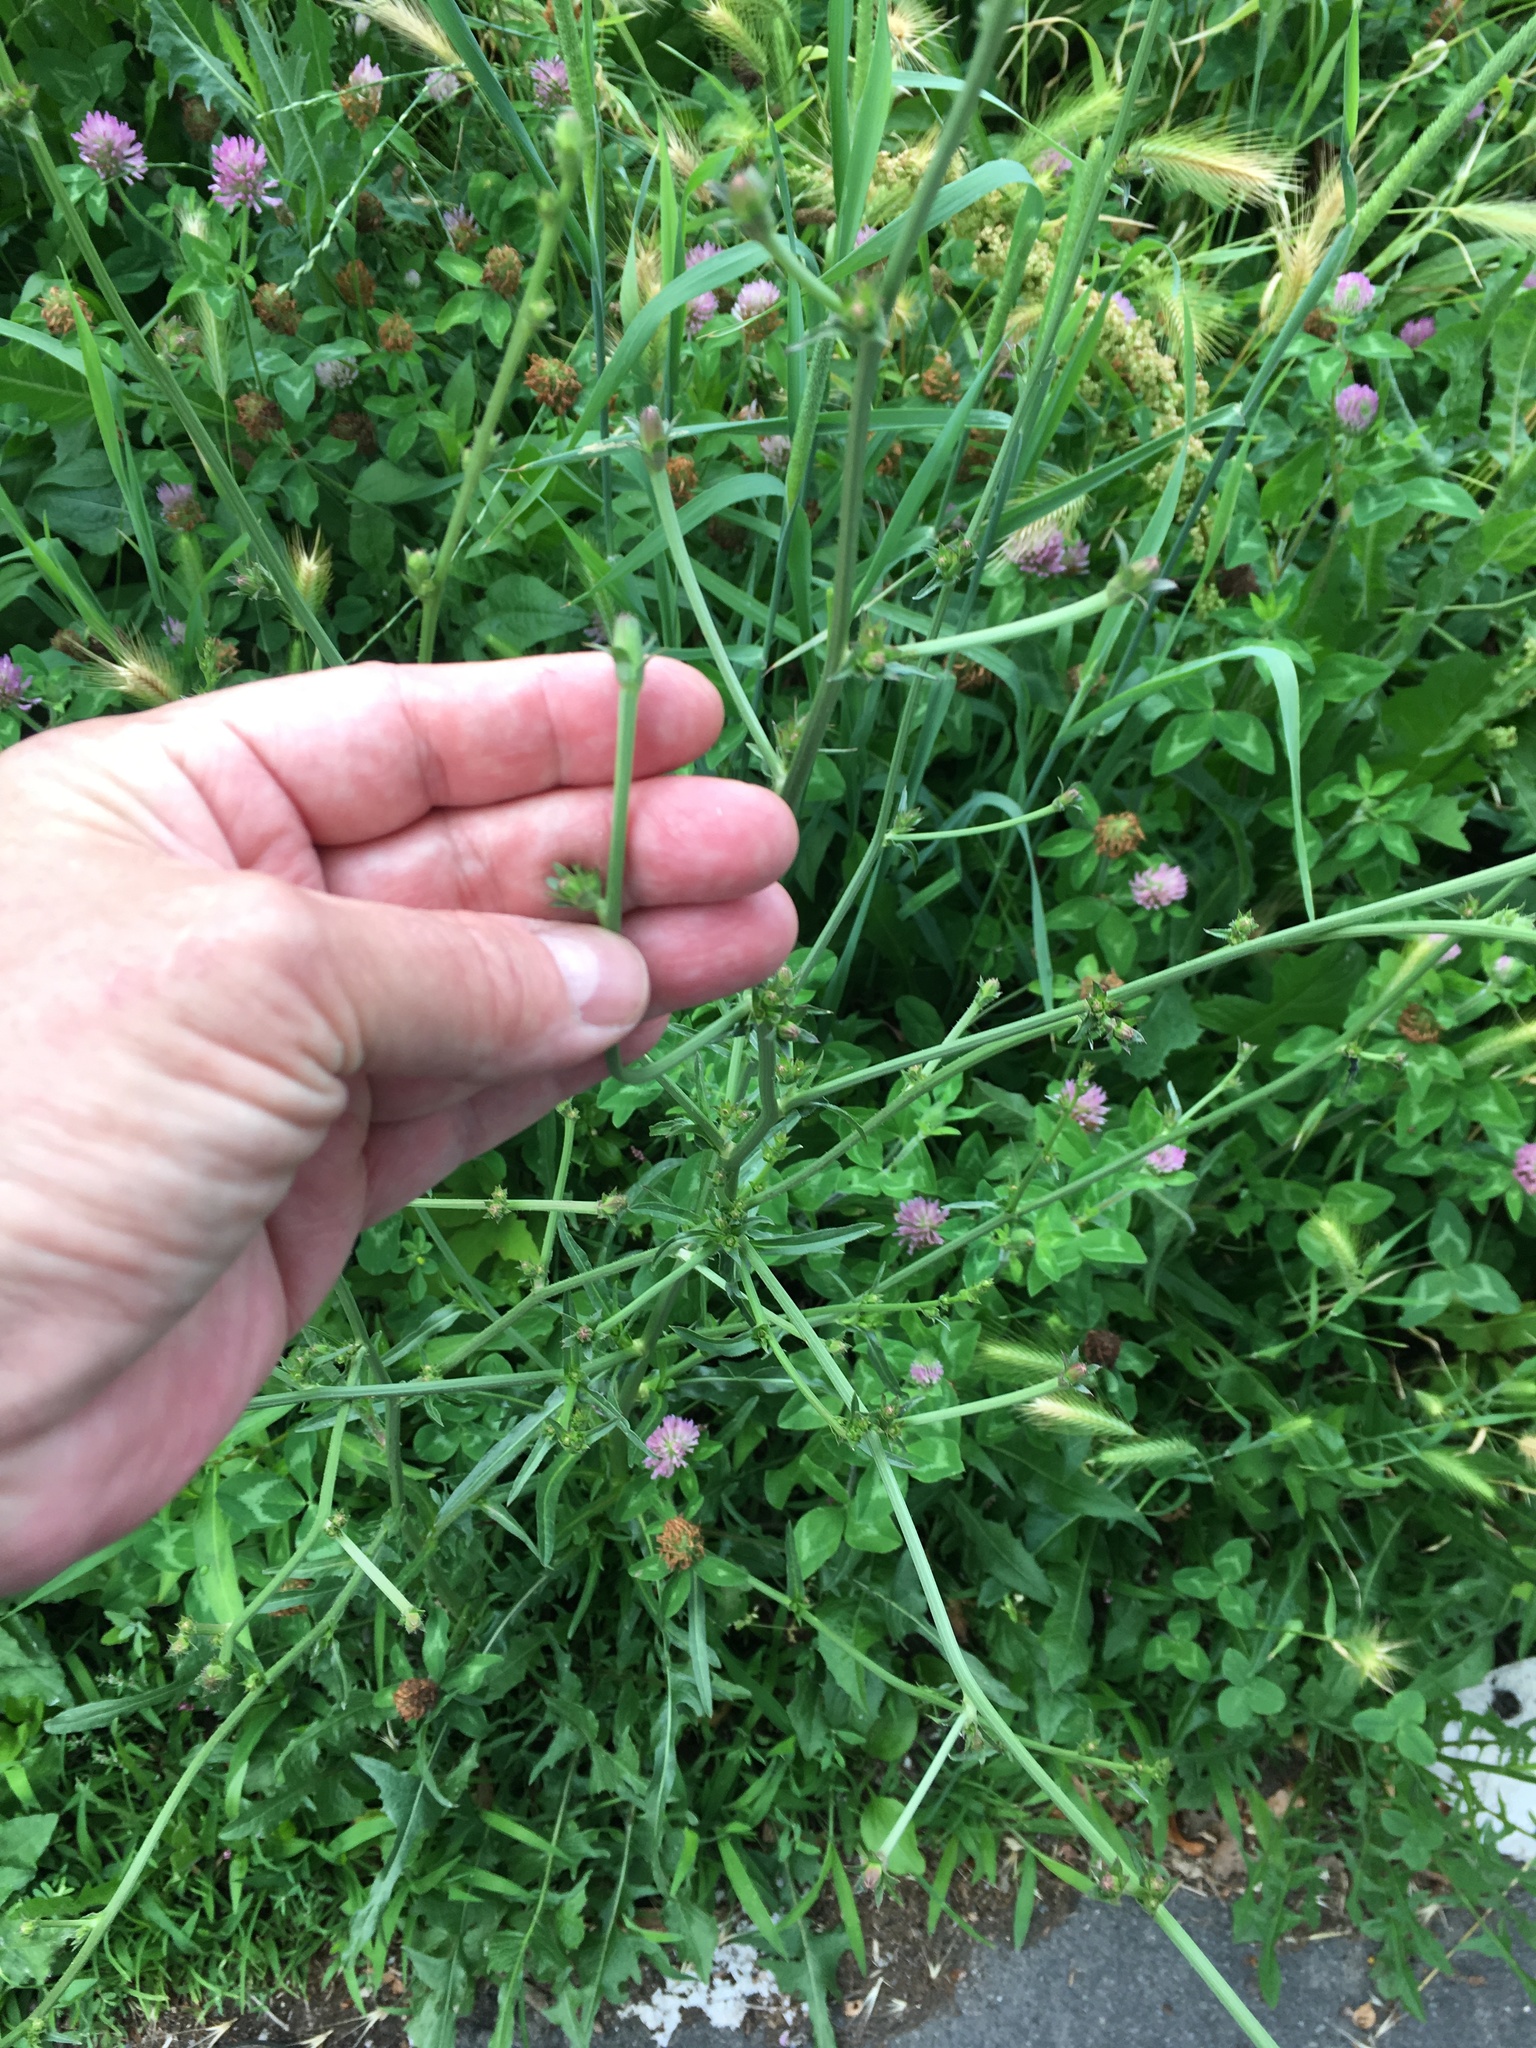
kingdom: Plantae
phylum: Tracheophyta
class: Magnoliopsida
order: Asterales
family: Asteraceae
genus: Cichorium
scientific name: Cichorium intybus
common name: Chicory
